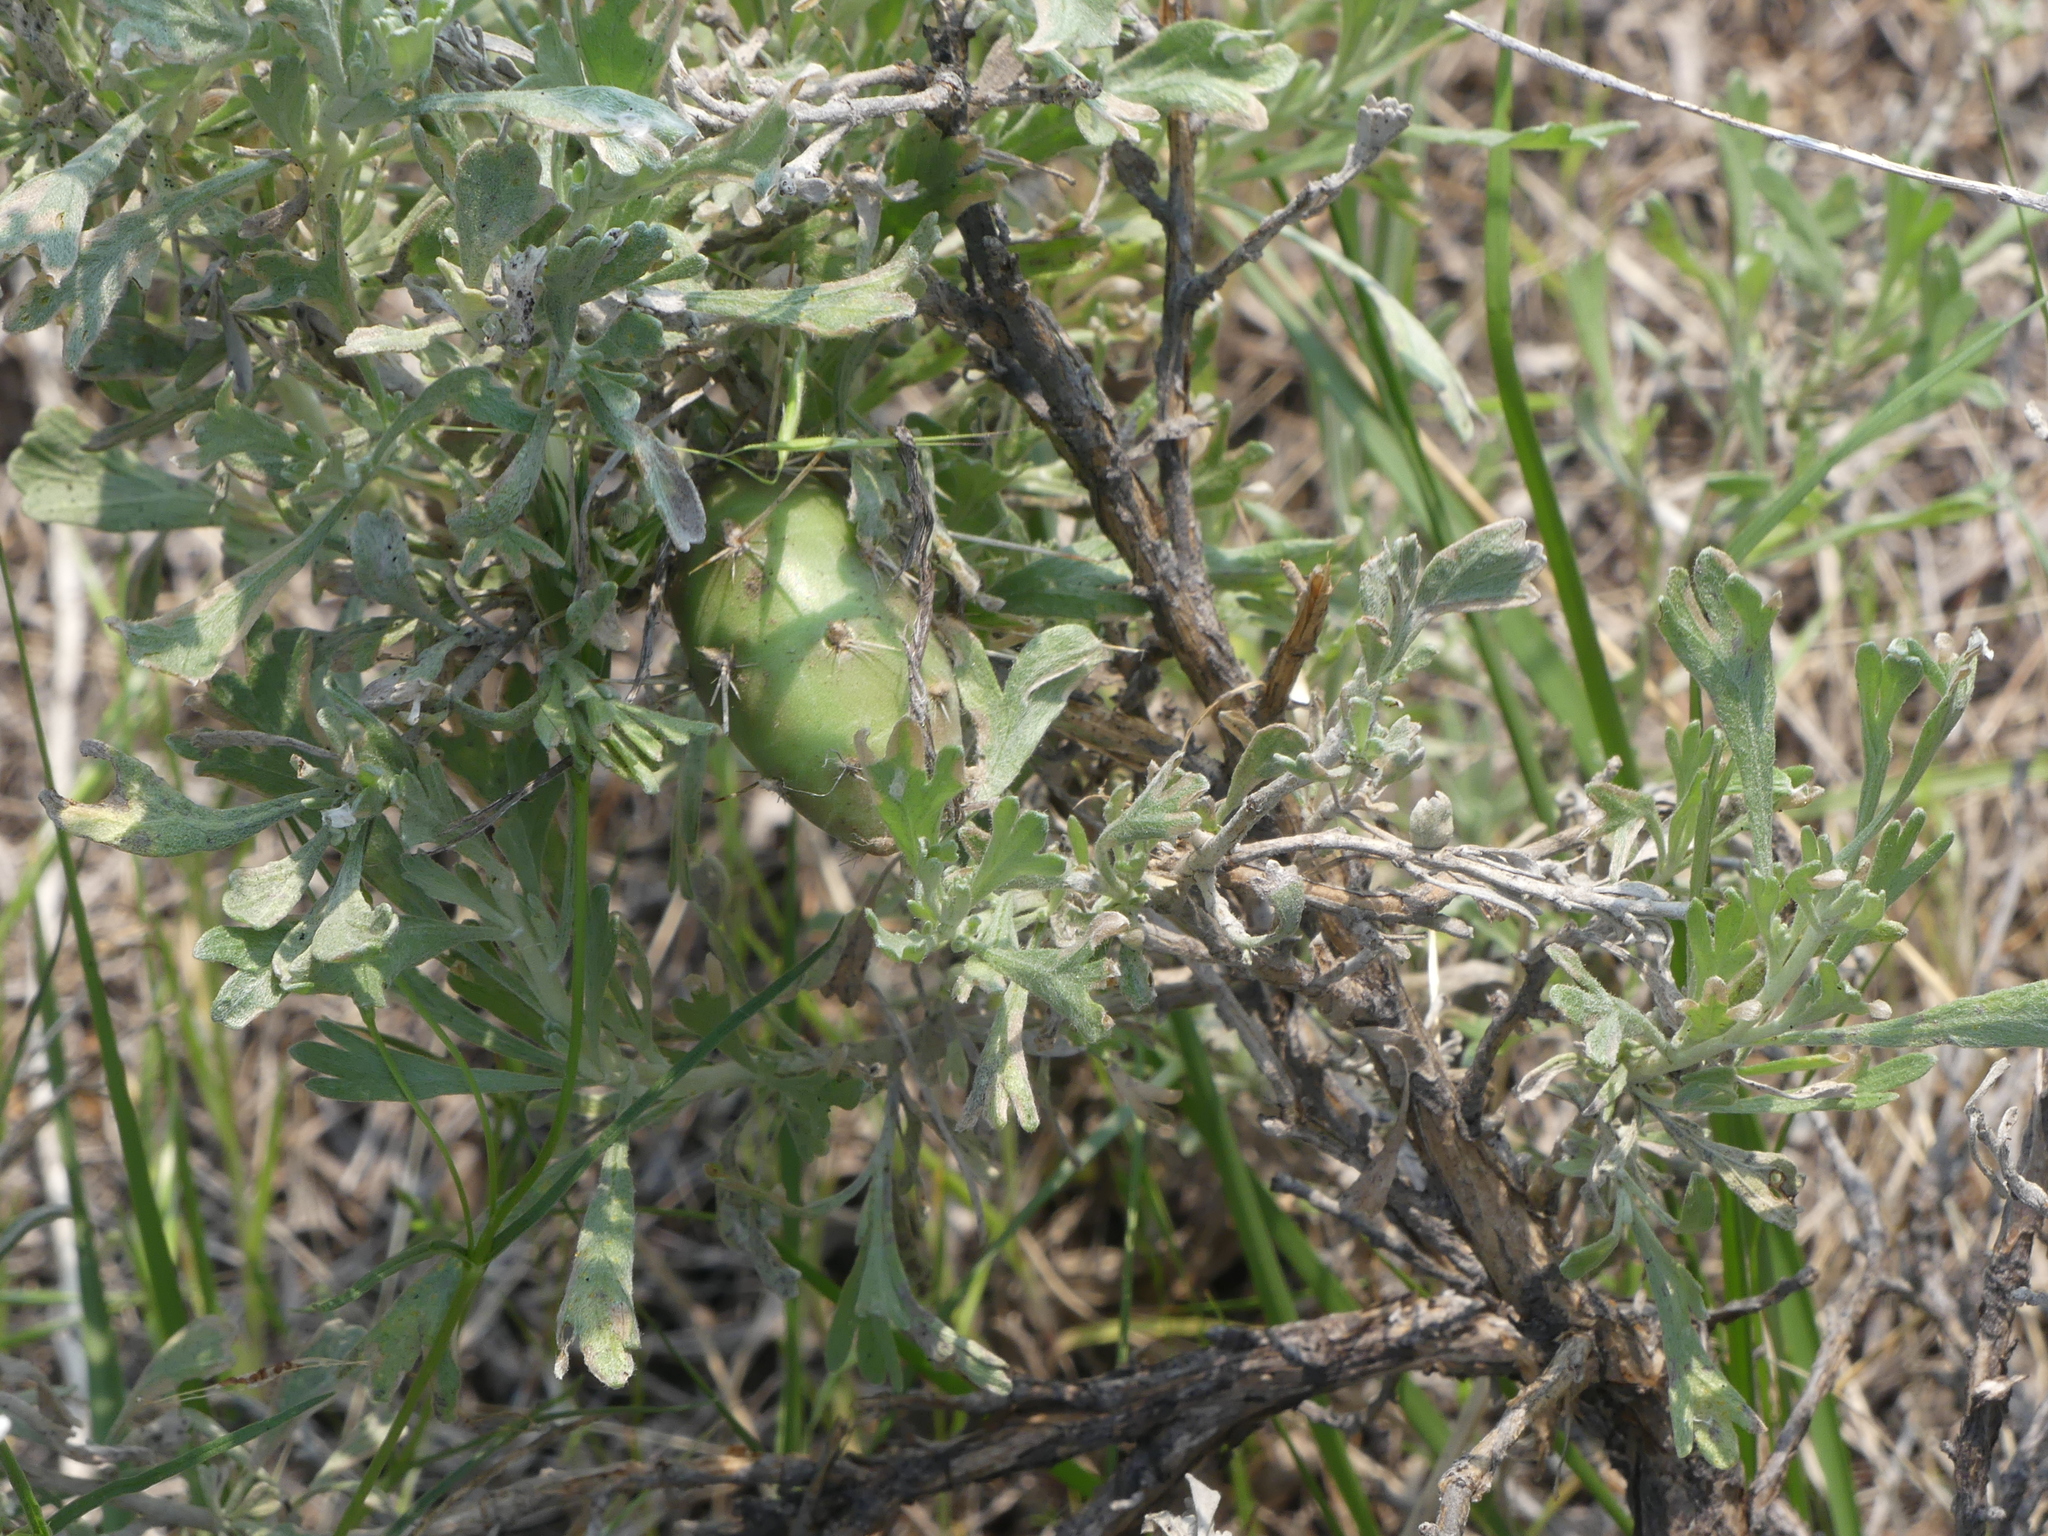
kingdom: Plantae
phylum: Tracheophyta
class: Magnoliopsida
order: Caryophyllales
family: Cactaceae
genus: Opuntia
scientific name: Opuntia fragilis
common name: Brittle cactus
